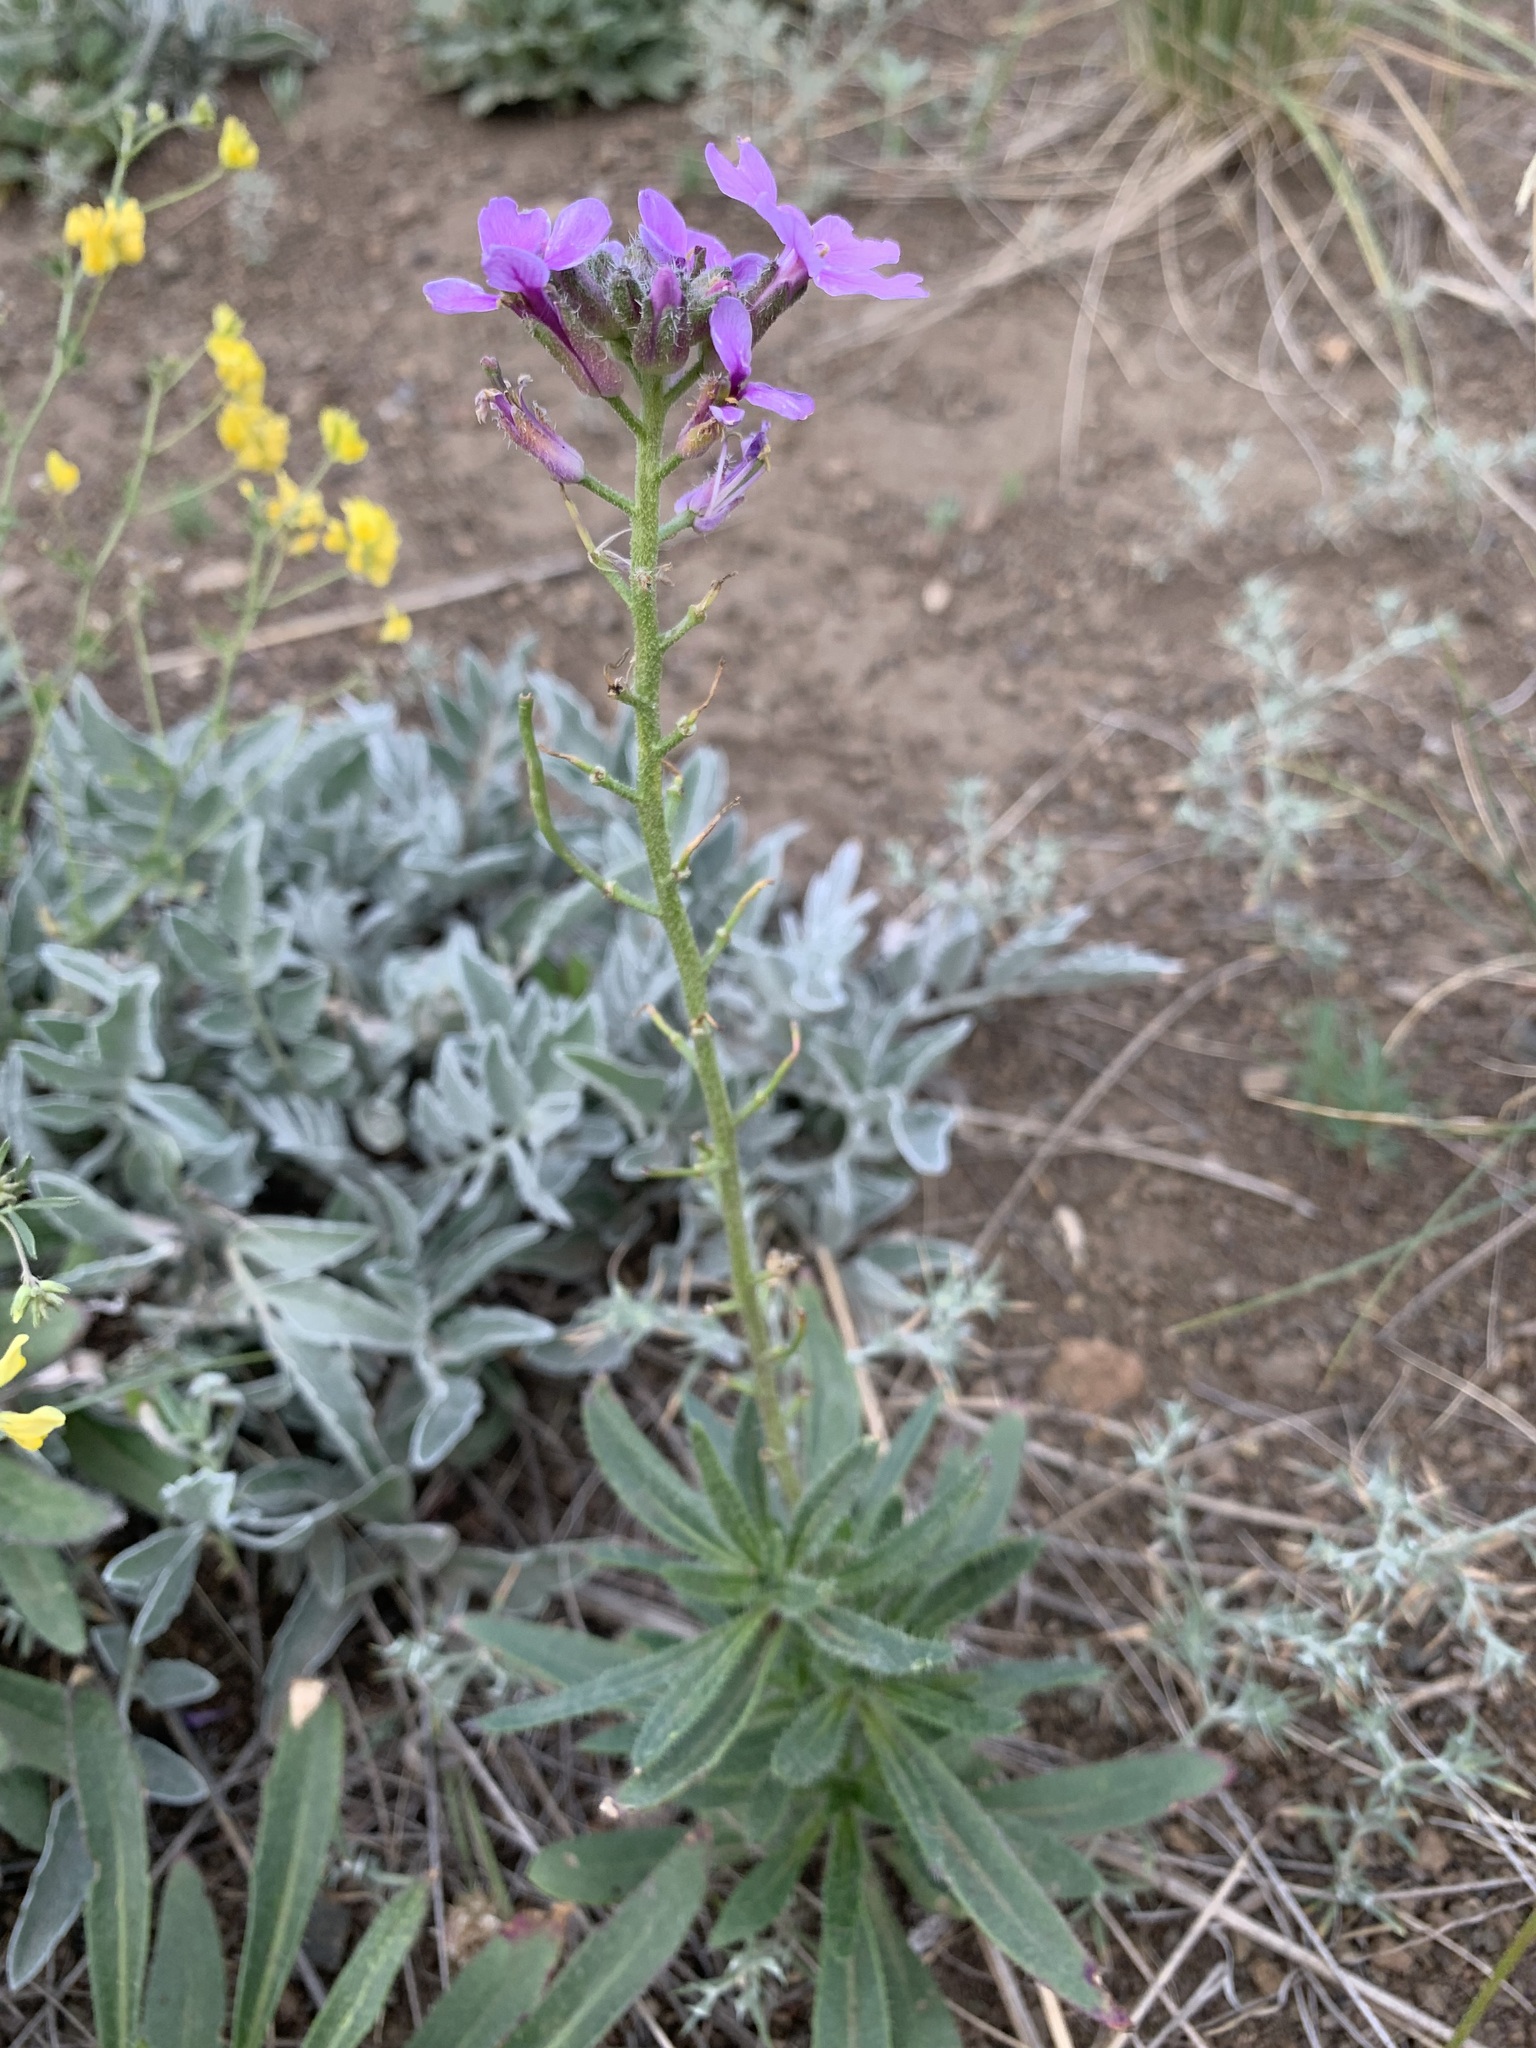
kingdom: Plantae
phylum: Tracheophyta
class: Magnoliopsida
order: Brassicales
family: Brassicaceae
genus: Clausia
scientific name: Clausia aprica
